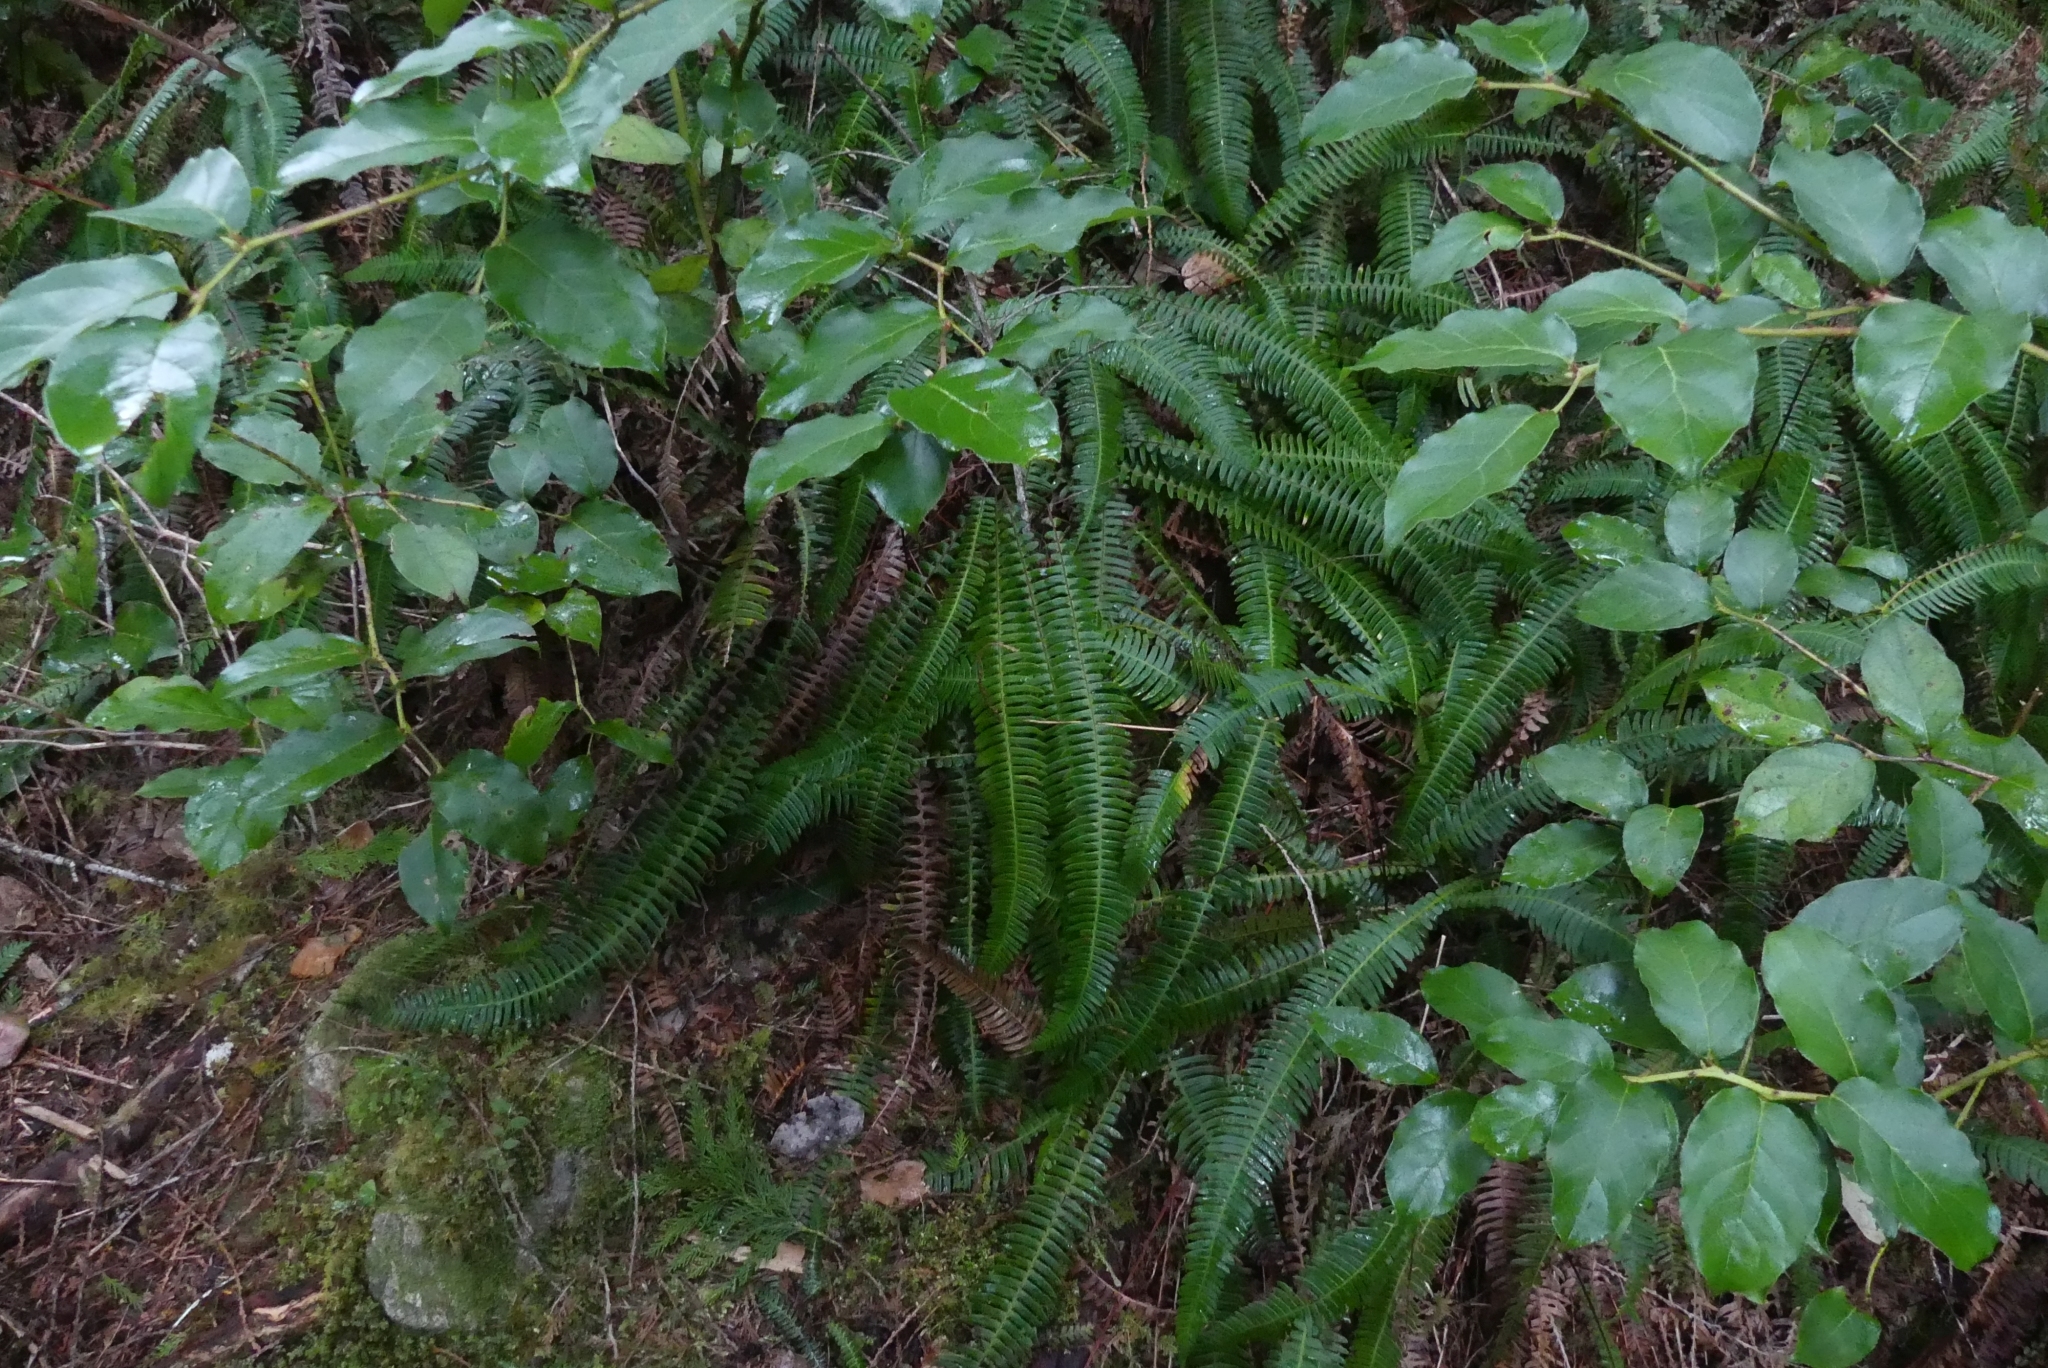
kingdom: Plantae
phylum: Tracheophyta
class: Polypodiopsida
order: Polypodiales
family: Blechnaceae
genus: Struthiopteris
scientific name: Struthiopteris spicant
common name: Deer fern
